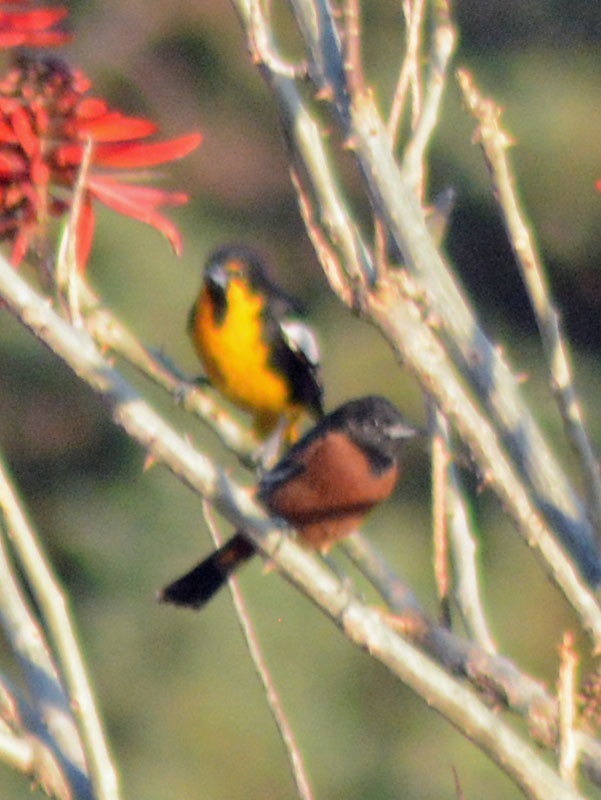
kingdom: Animalia
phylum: Chordata
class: Aves
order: Passeriformes
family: Icteridae
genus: Icterus
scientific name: Icterus abeillei
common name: Black-backed oriole
